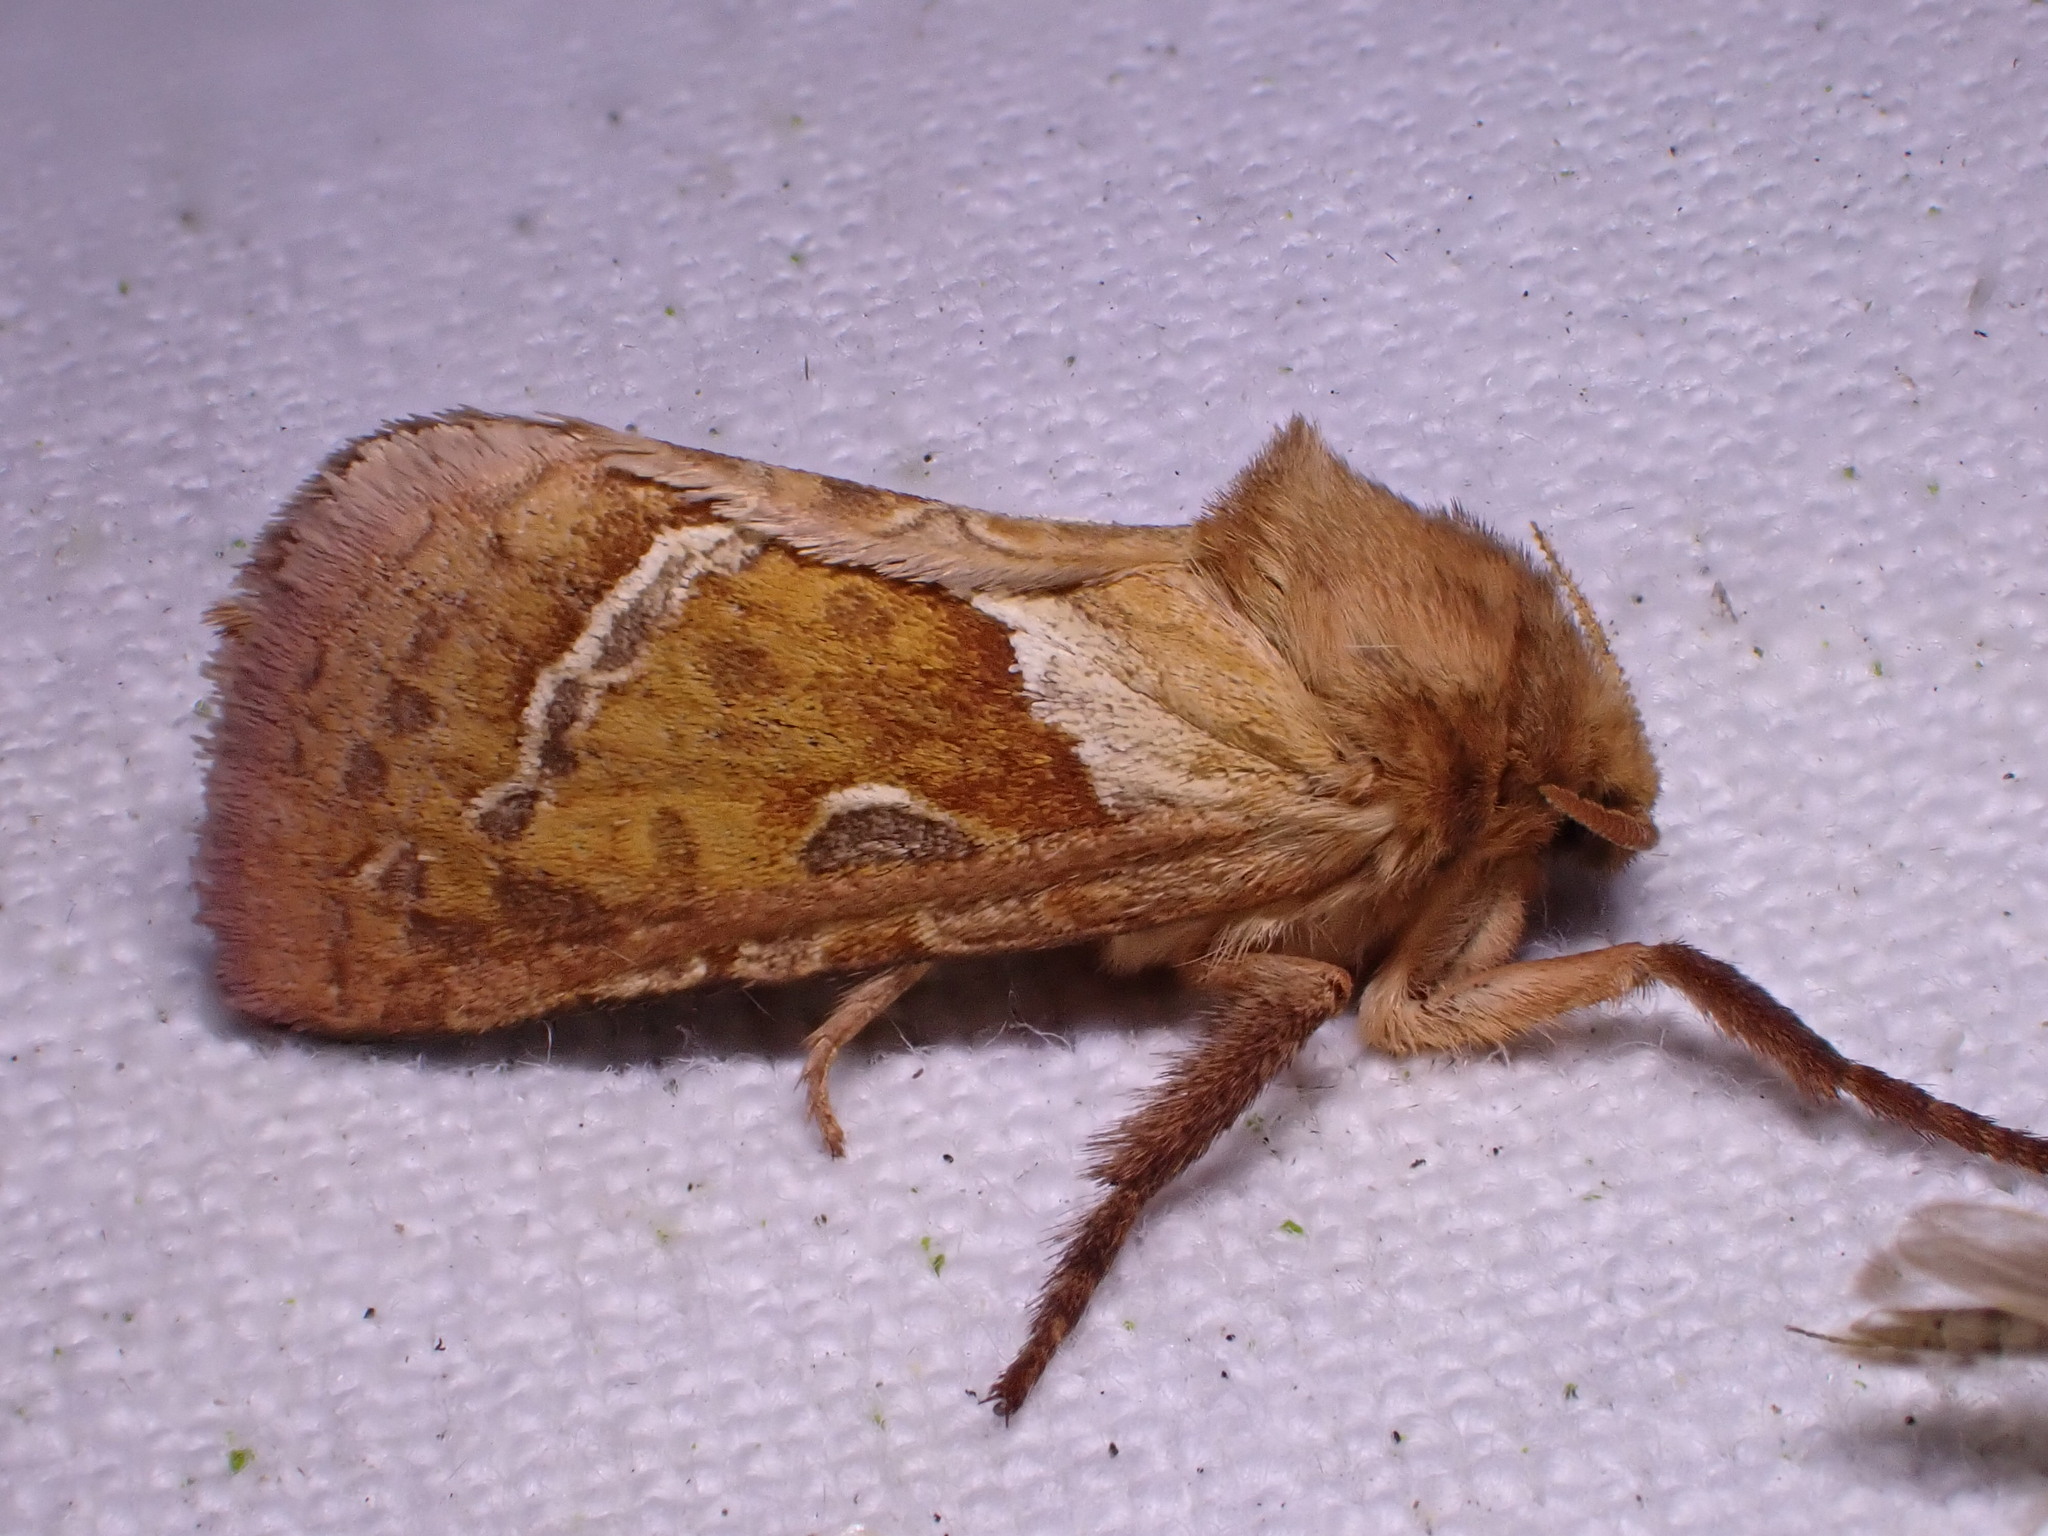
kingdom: Animalia
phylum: Arthropoda
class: Insecta
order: Lepidoptera
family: Hepialidae
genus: Triodia
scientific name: Triodia sylvina
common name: Orange swift
